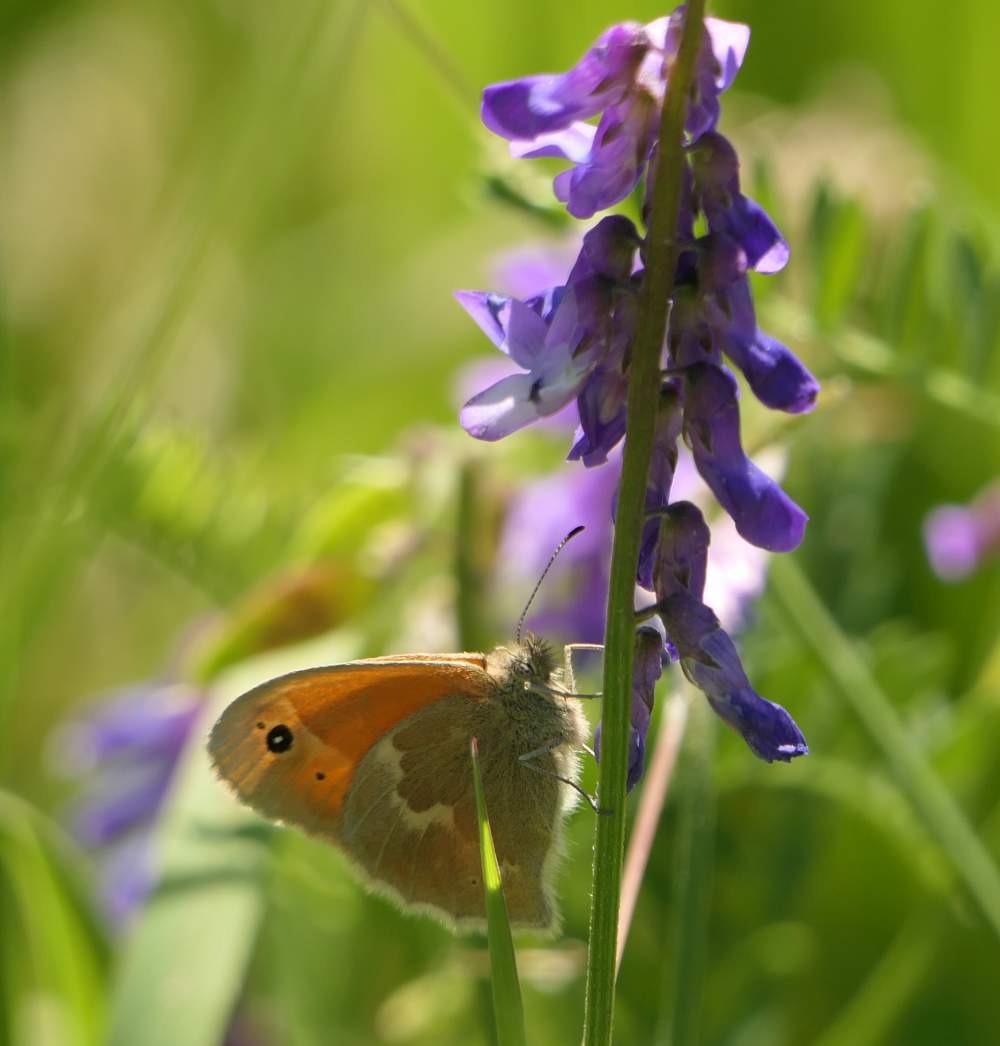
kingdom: Animalia
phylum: Arthropoda
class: Insecta
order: Lepidoptera
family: Nymphalidae
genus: Coenonympha
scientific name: Coenonympha california
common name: Common ringlet
